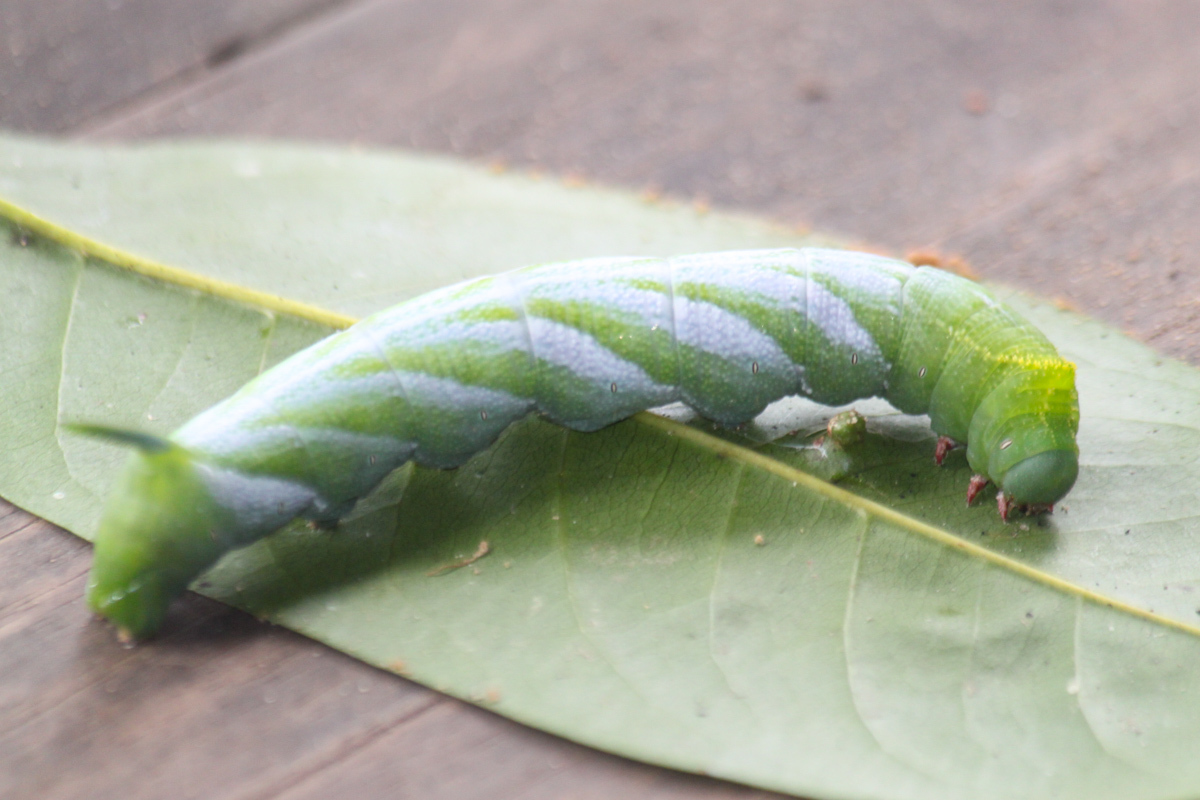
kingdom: Animalia
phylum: Arthropoda
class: Insecta
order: Lepidoptera
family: Sphingidae
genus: Meganoton
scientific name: Meganoton nyctiphanes
